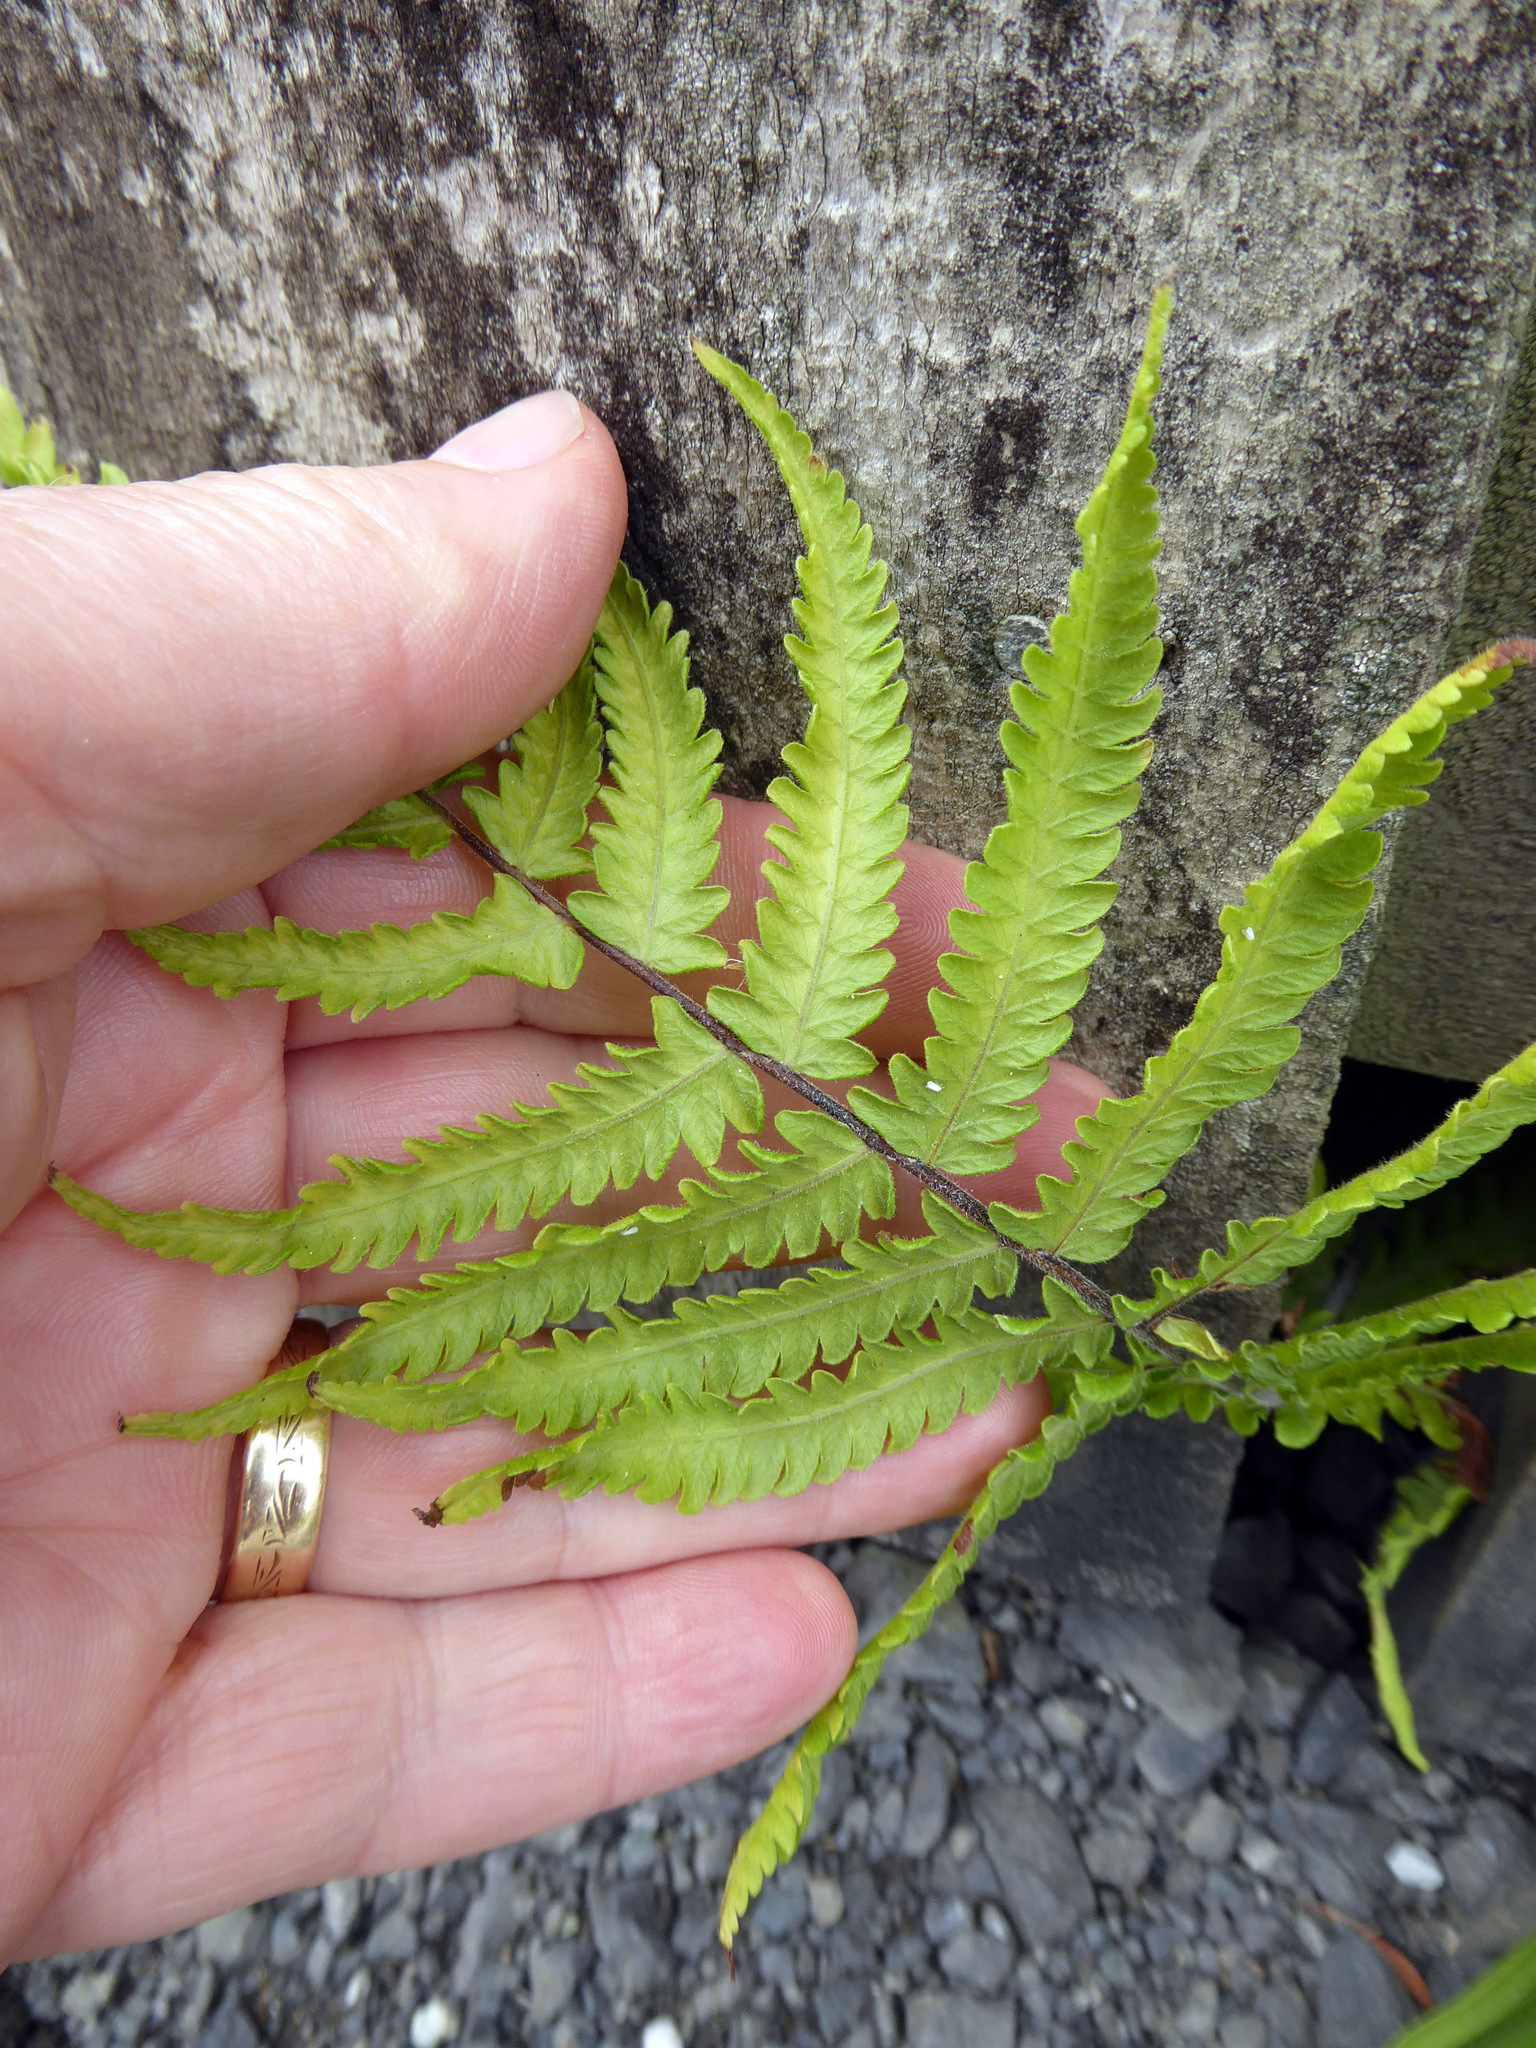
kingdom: Plantae
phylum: Tracheophyta
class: Polypodiopsida
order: Polypodiales
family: Thelypteridaceae
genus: Christella
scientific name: Christella dentata
